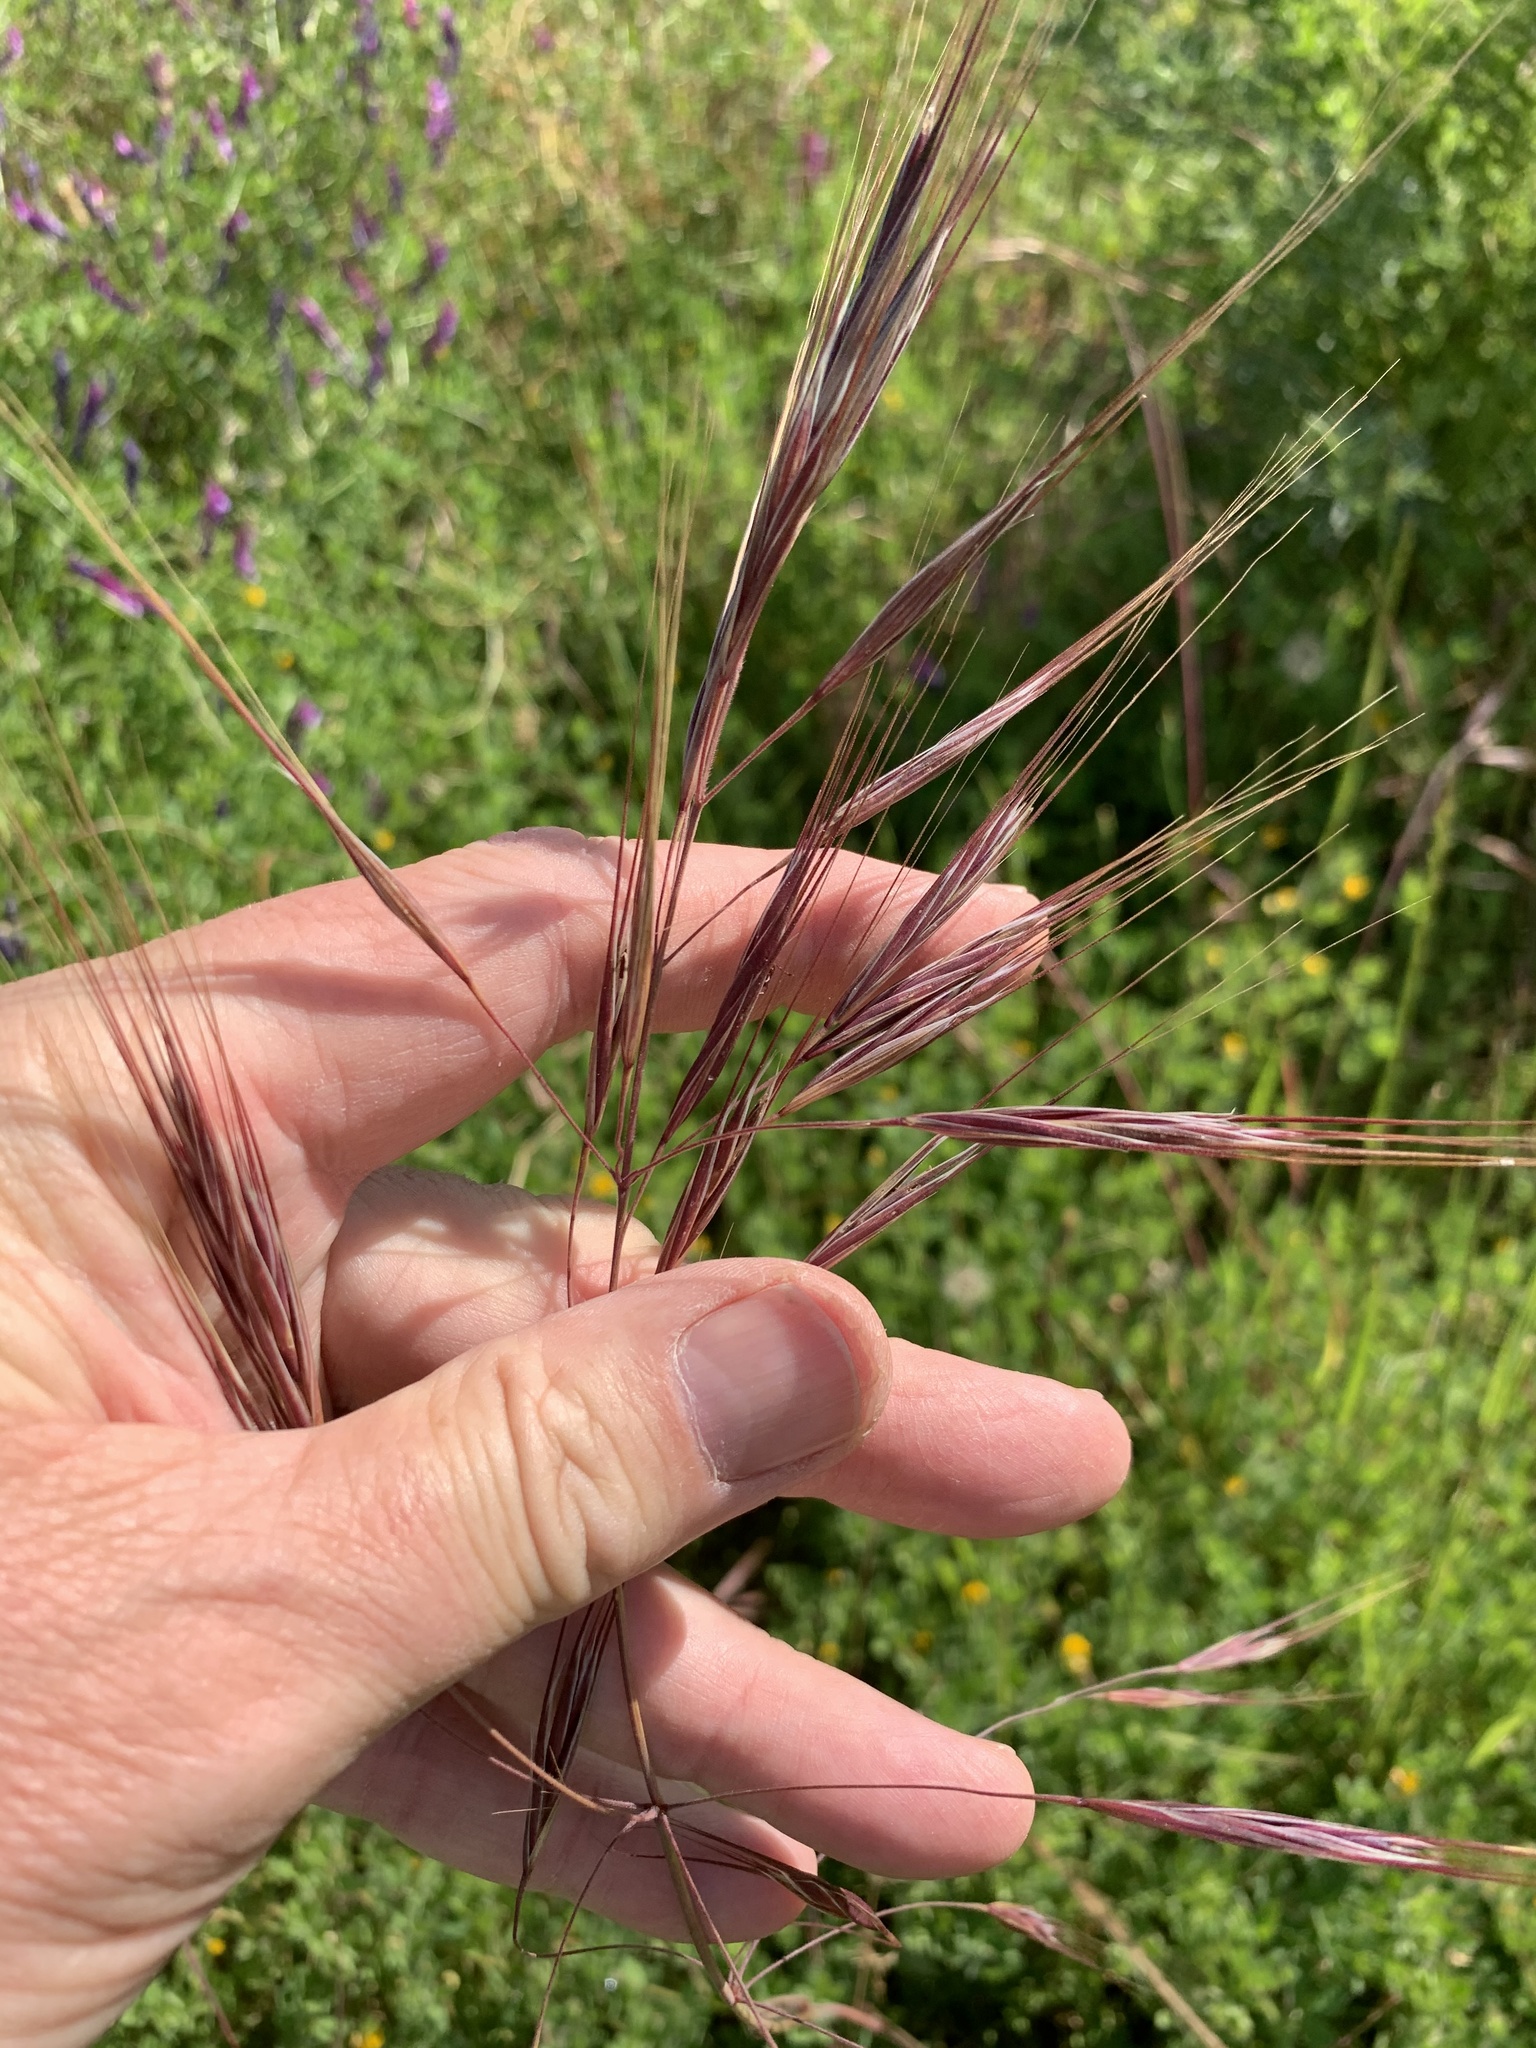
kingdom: Plantae
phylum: Tracheophyta
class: Liliopsida
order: Poales
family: Poaceae
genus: Bromus
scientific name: Bromus diandrus
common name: Ripgut brome
